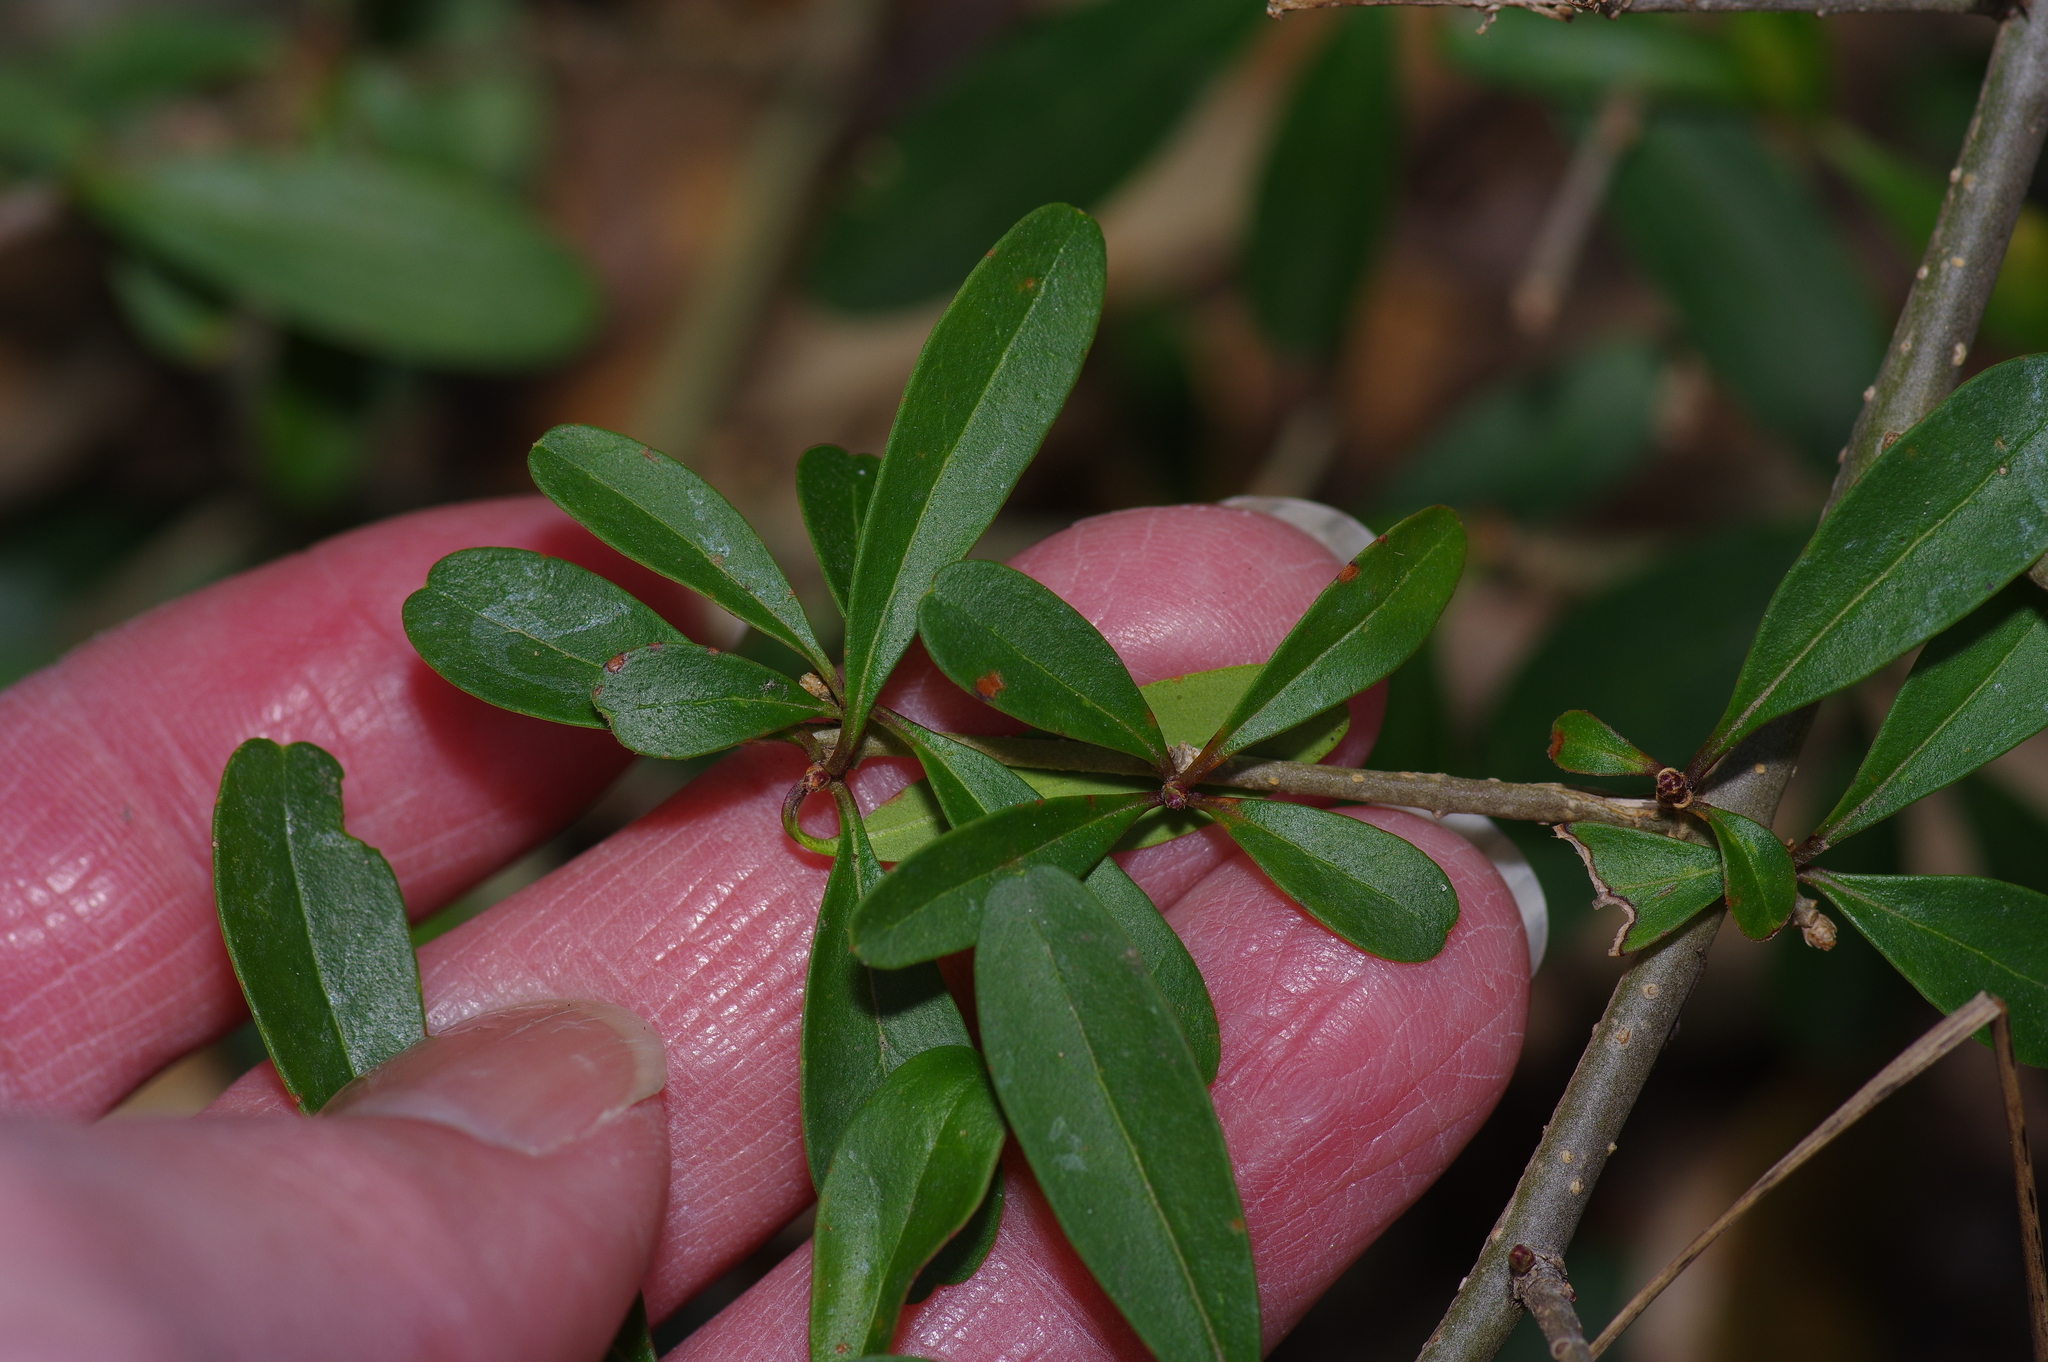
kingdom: Plantae
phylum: Tracheophyta
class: Magnoliopsida
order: Lamiales
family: Oleaceae
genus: Ligustrum
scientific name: Ligustrum quihoui
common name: Waxyleaf privet
